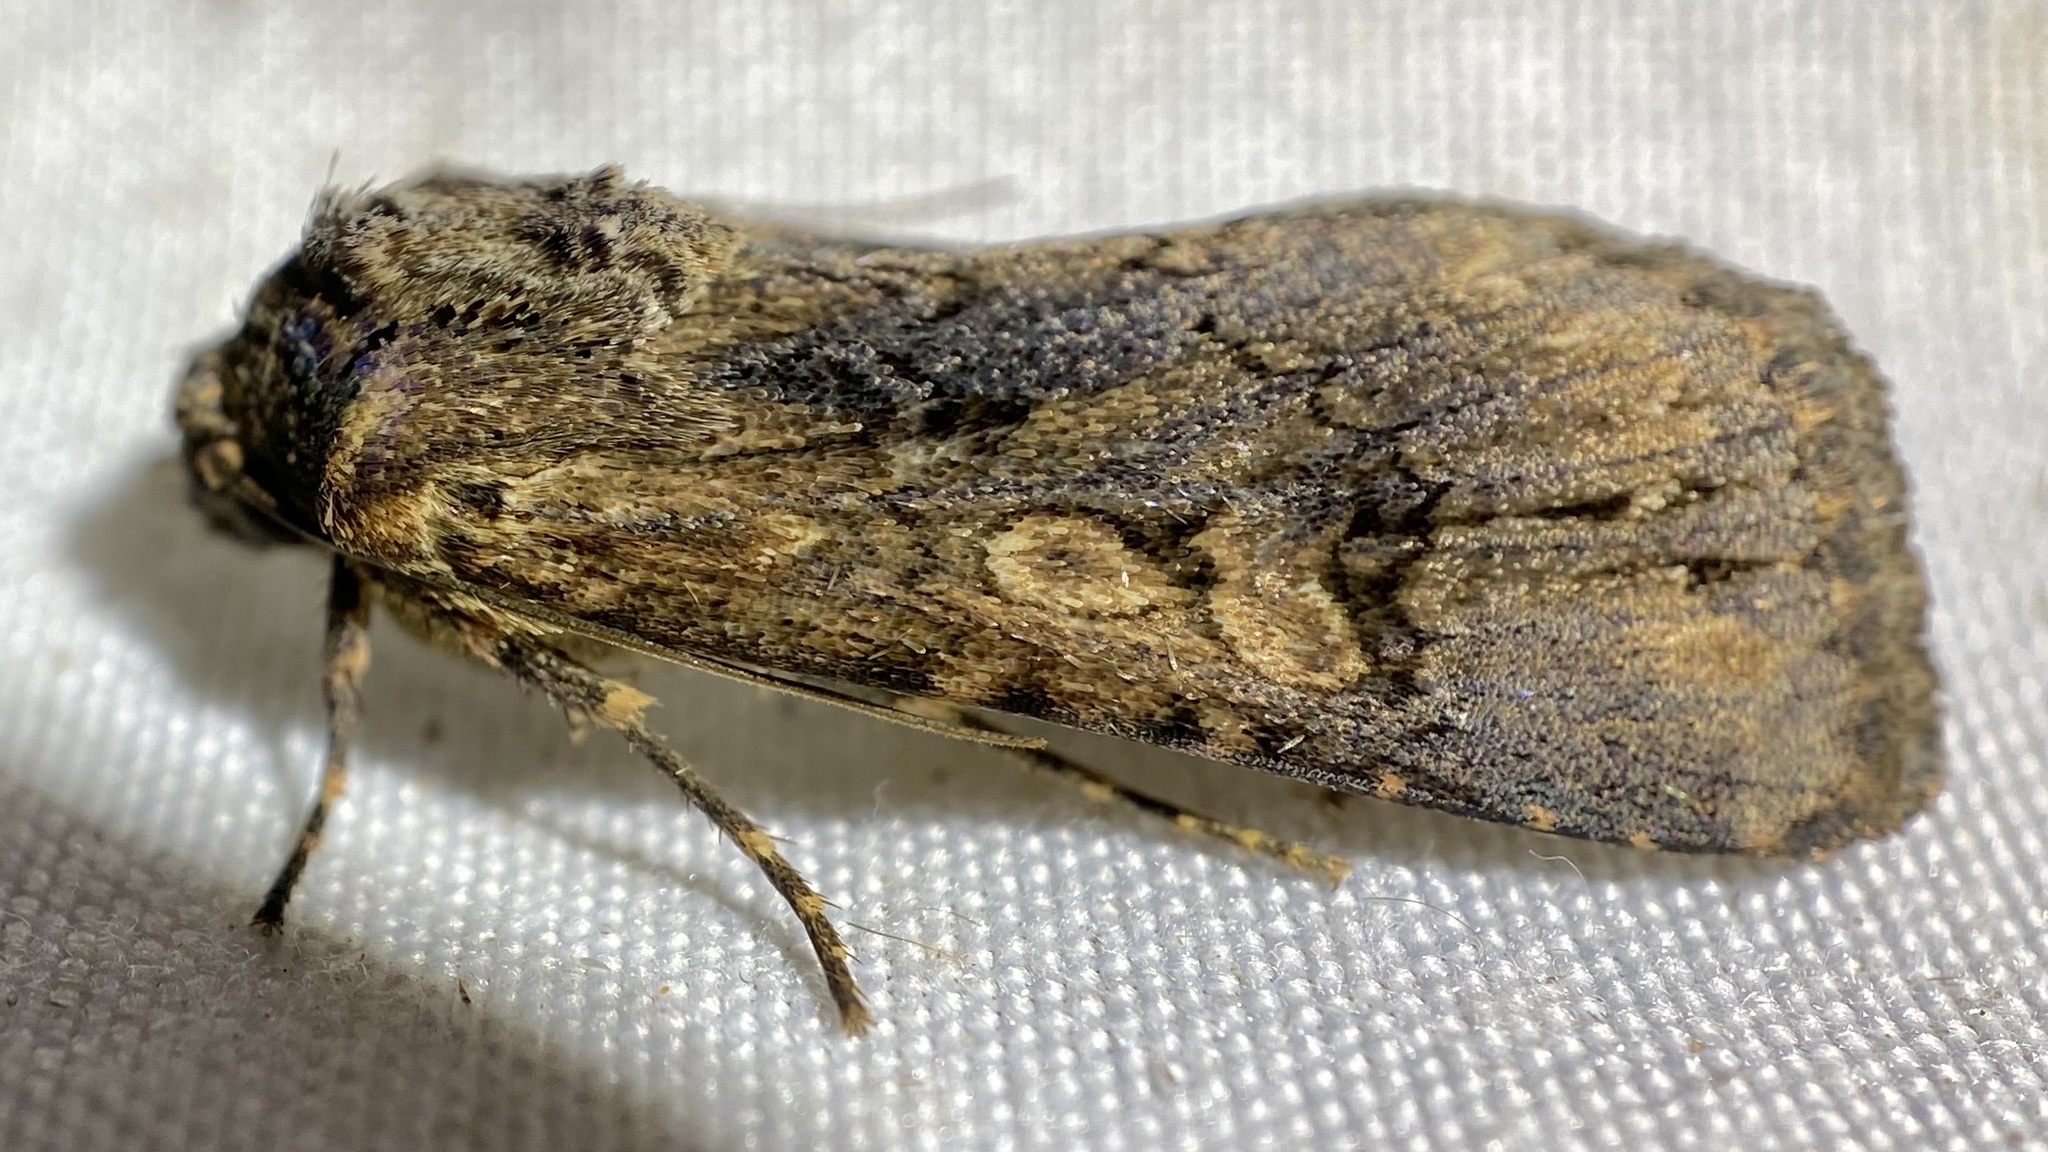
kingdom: Animalia
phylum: Arthropoda
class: Insecta
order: Lepidoptera
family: Noctuidae
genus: Dichagyris
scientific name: Dichagyris proclivis
